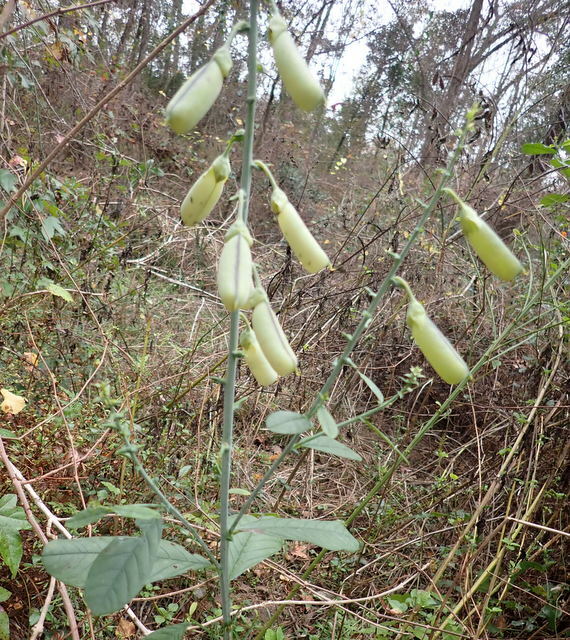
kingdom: Plantae
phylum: Tracheophyta
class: Magnoliopsida
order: Fabales
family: Fabaceae
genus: Crotalaria
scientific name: Crotalaria spectabilis
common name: Showy rattlebox
